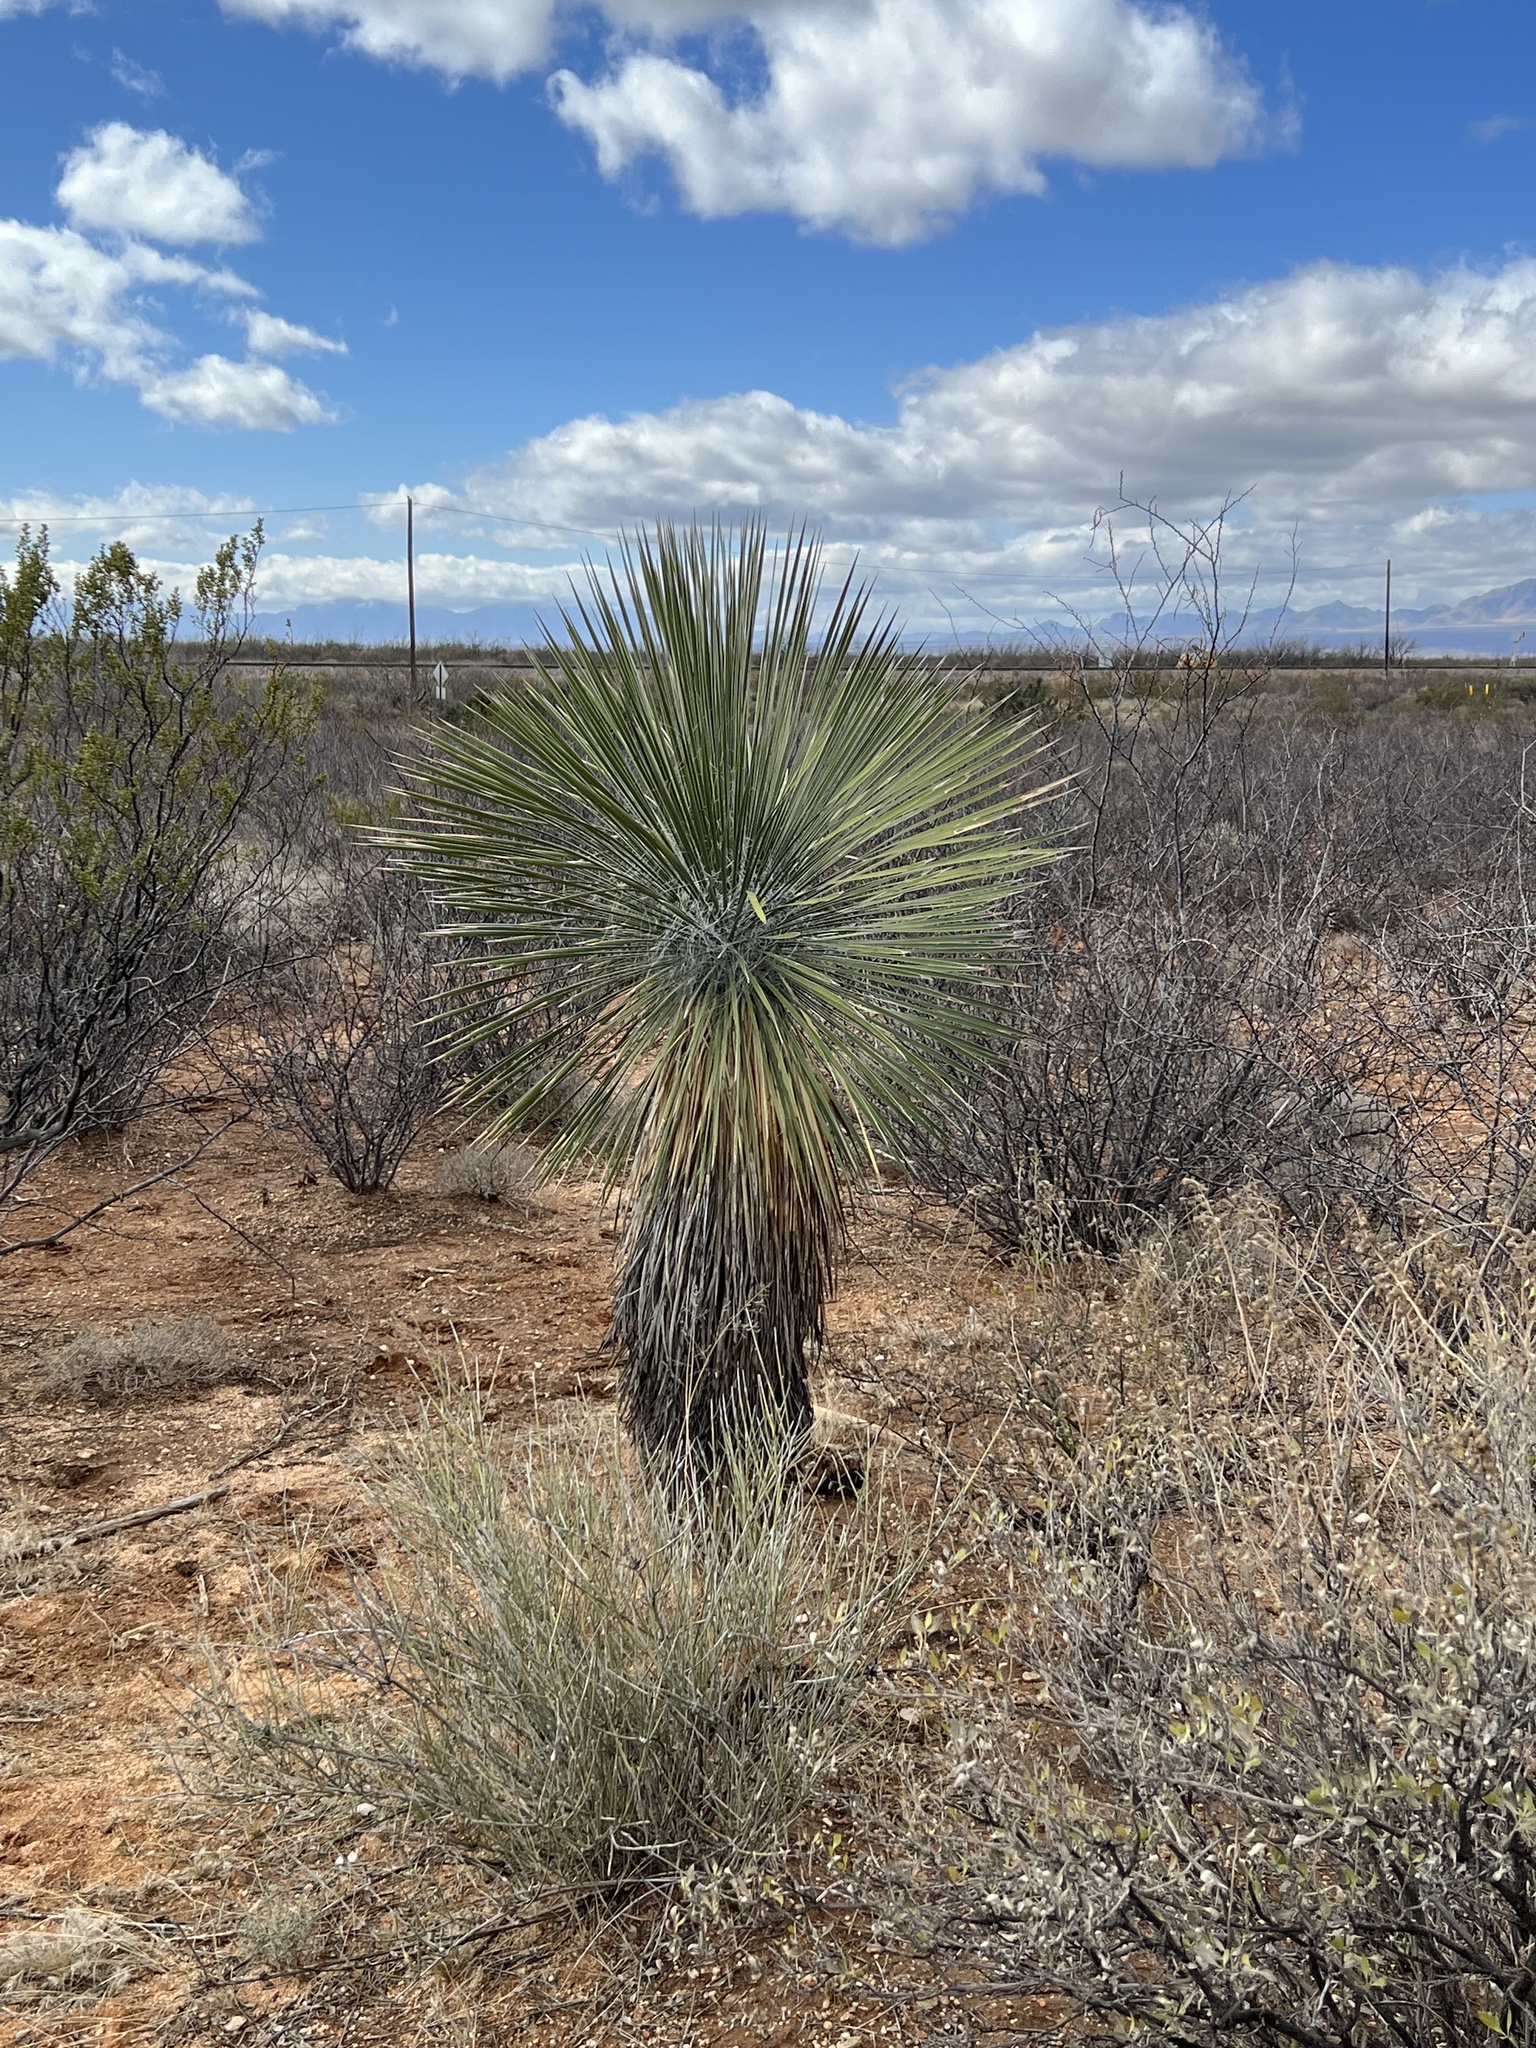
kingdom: Plantae
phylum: Tracheophyta
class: Liliopsida
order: Asparagales
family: Asparagaceae
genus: Yucca
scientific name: Yucca elata
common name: Palmella
